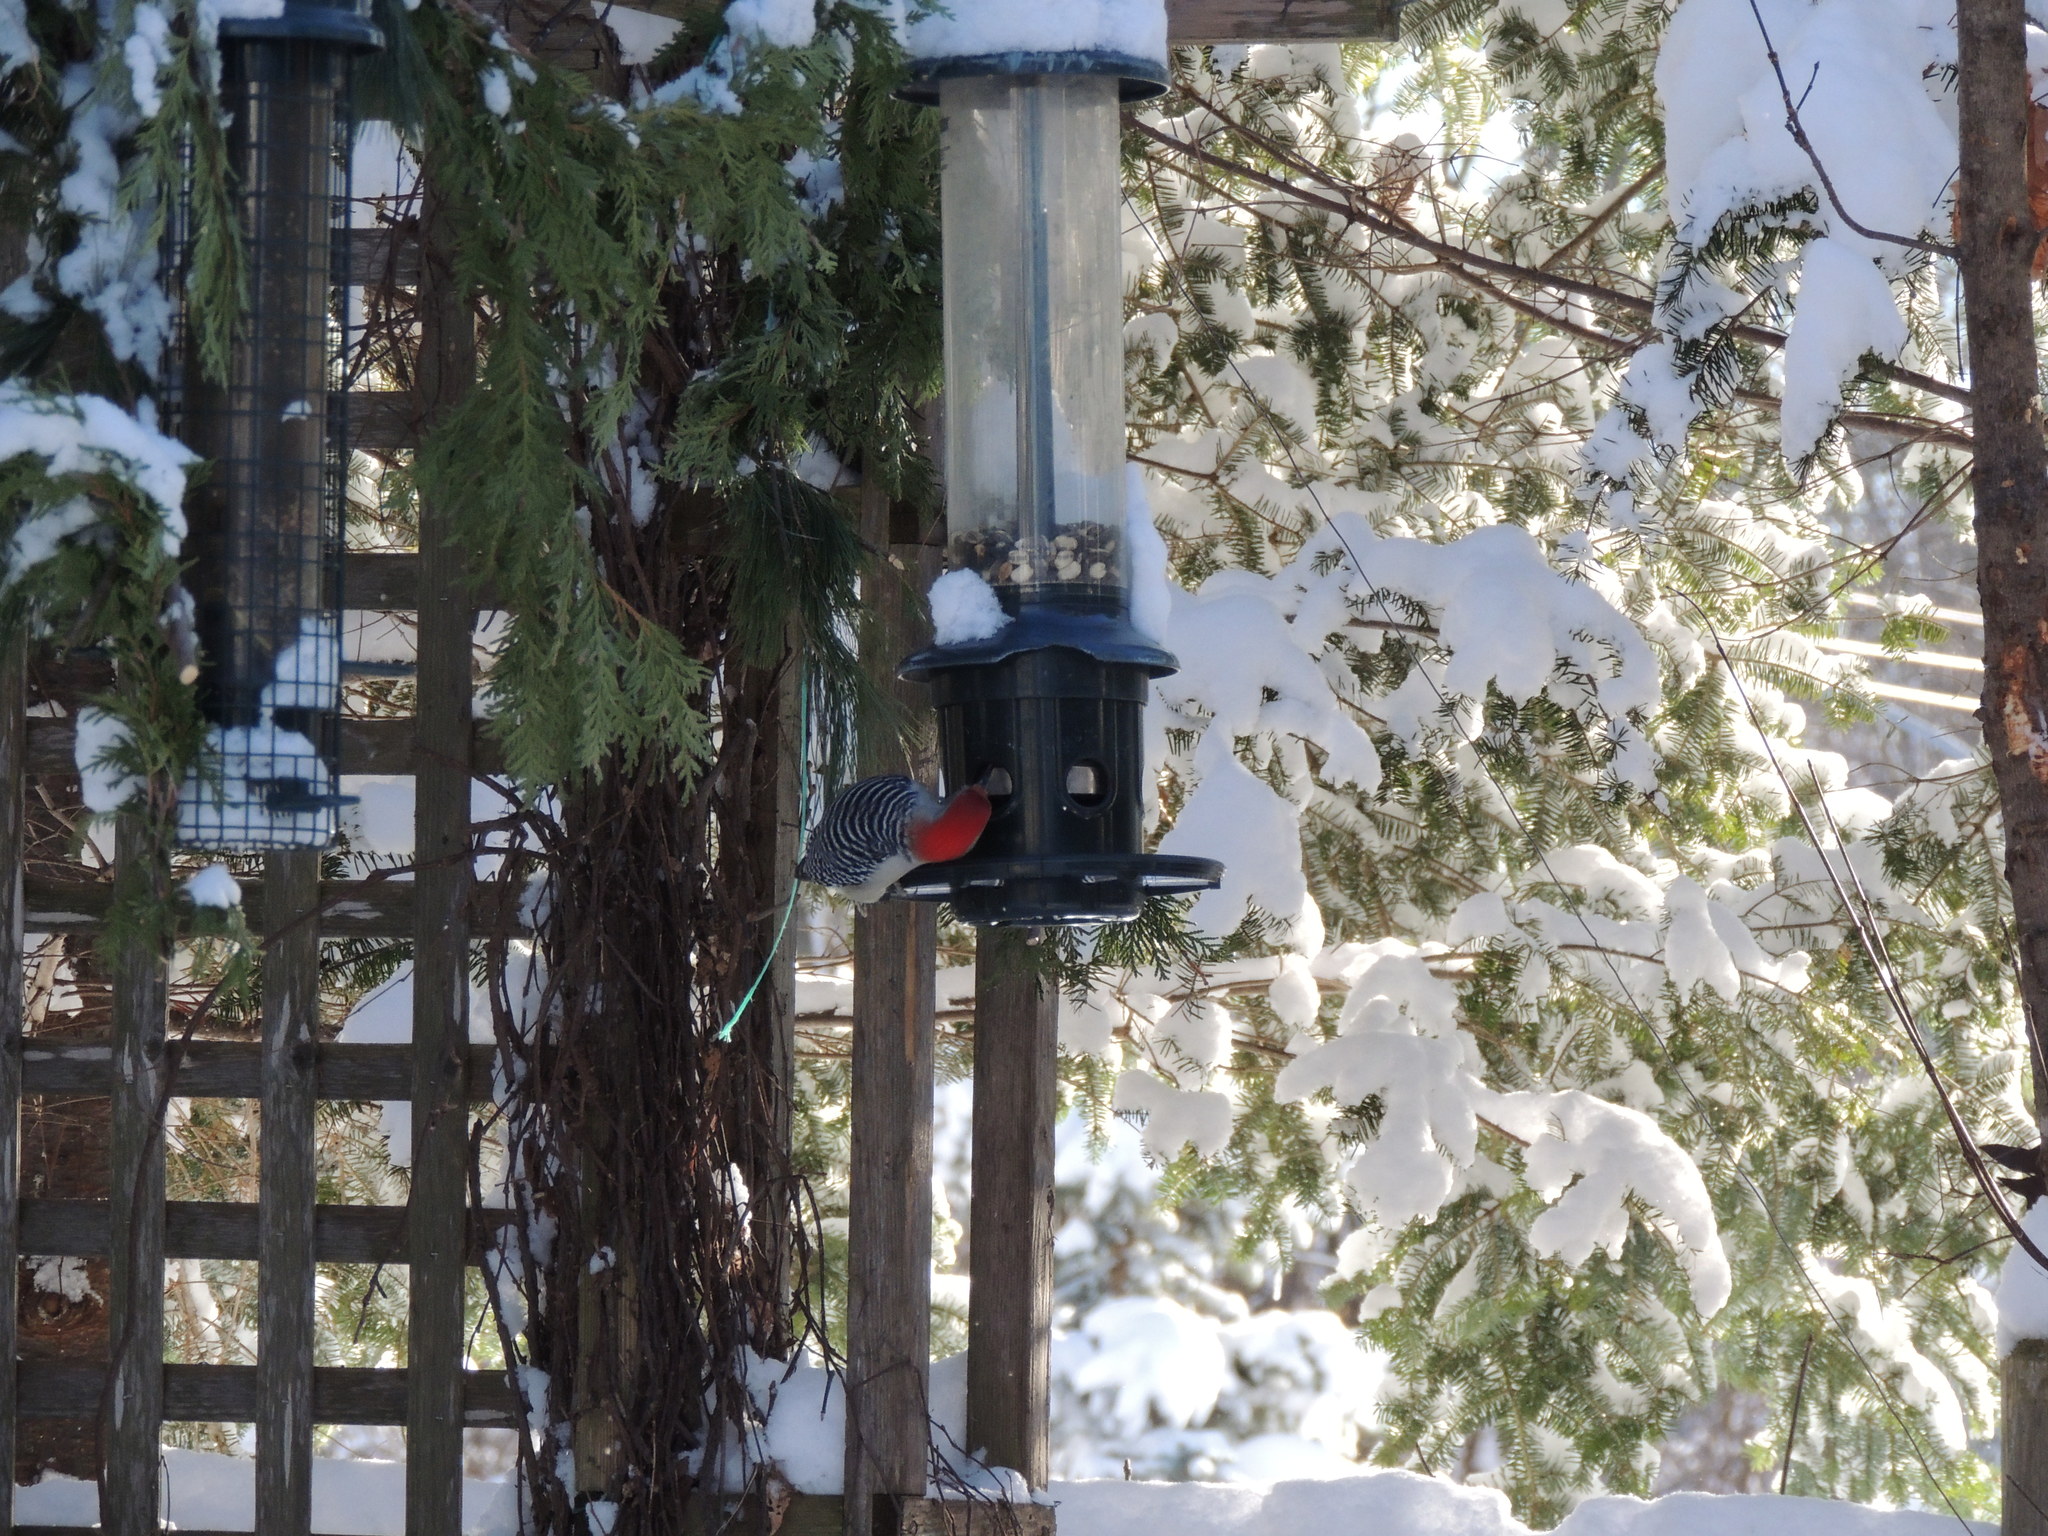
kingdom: Animalia
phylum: Chordata
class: Aves
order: Piciformes
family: Picidae
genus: Melanerpes
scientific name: Melanerpes carolinus
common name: Red-bellied woodpecker
